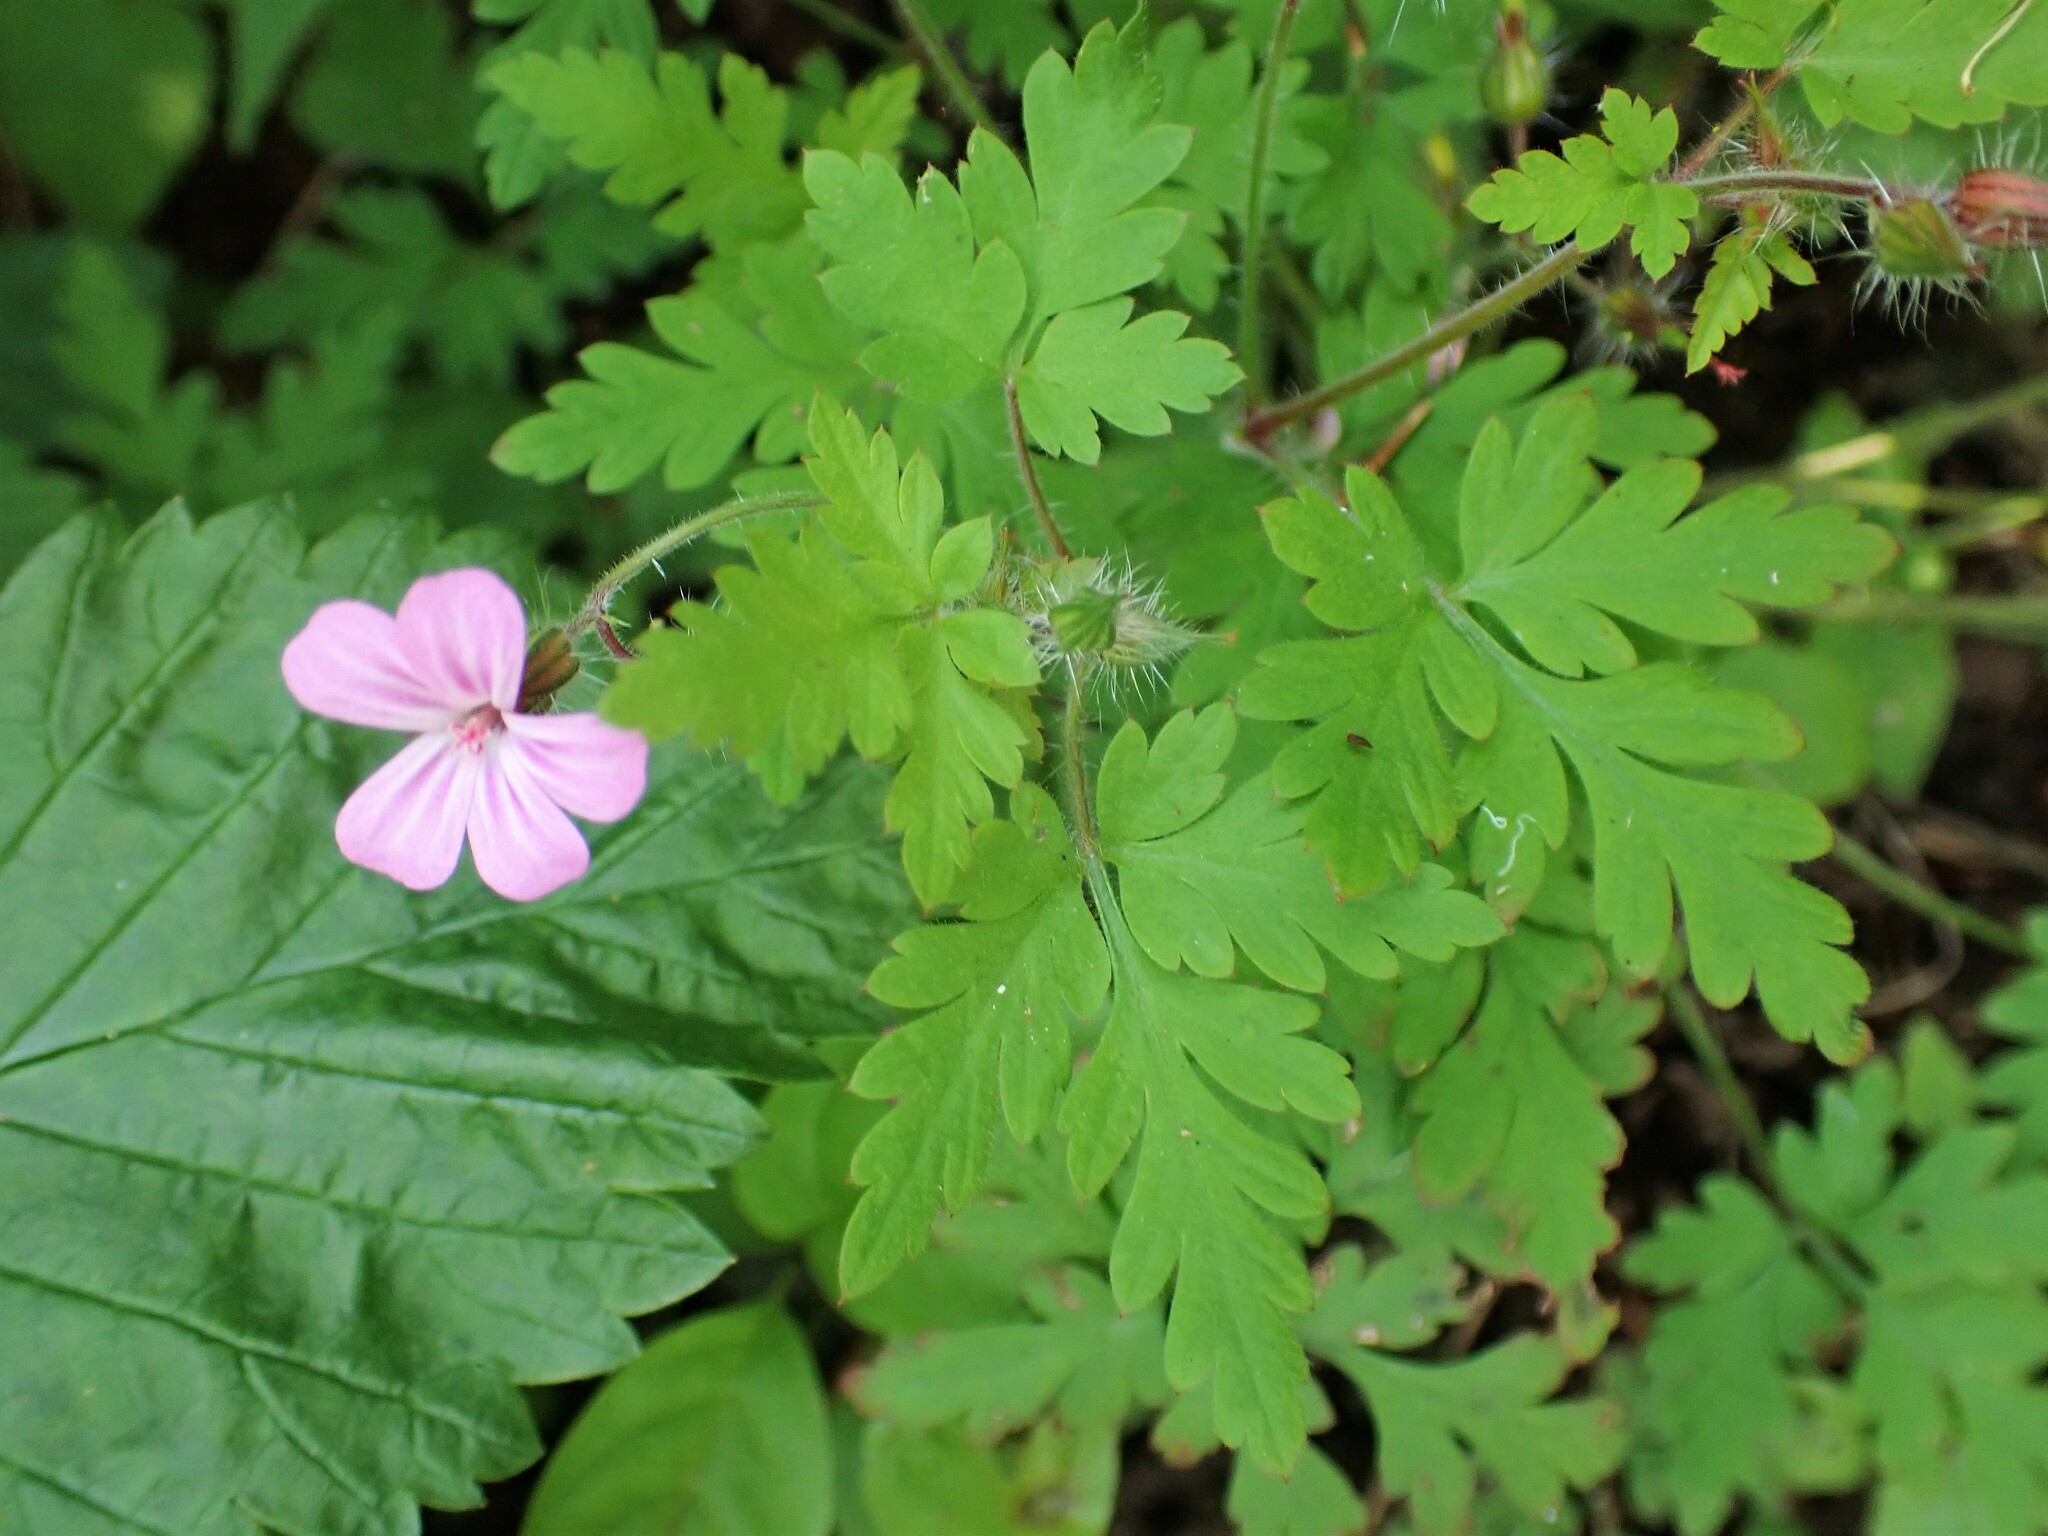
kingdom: Plantae
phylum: Tracheophyta
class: Magnoliopsida
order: Geraniales
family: Geraniaceae
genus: Geranium
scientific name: Geranium robertianum
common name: Herb-robert
